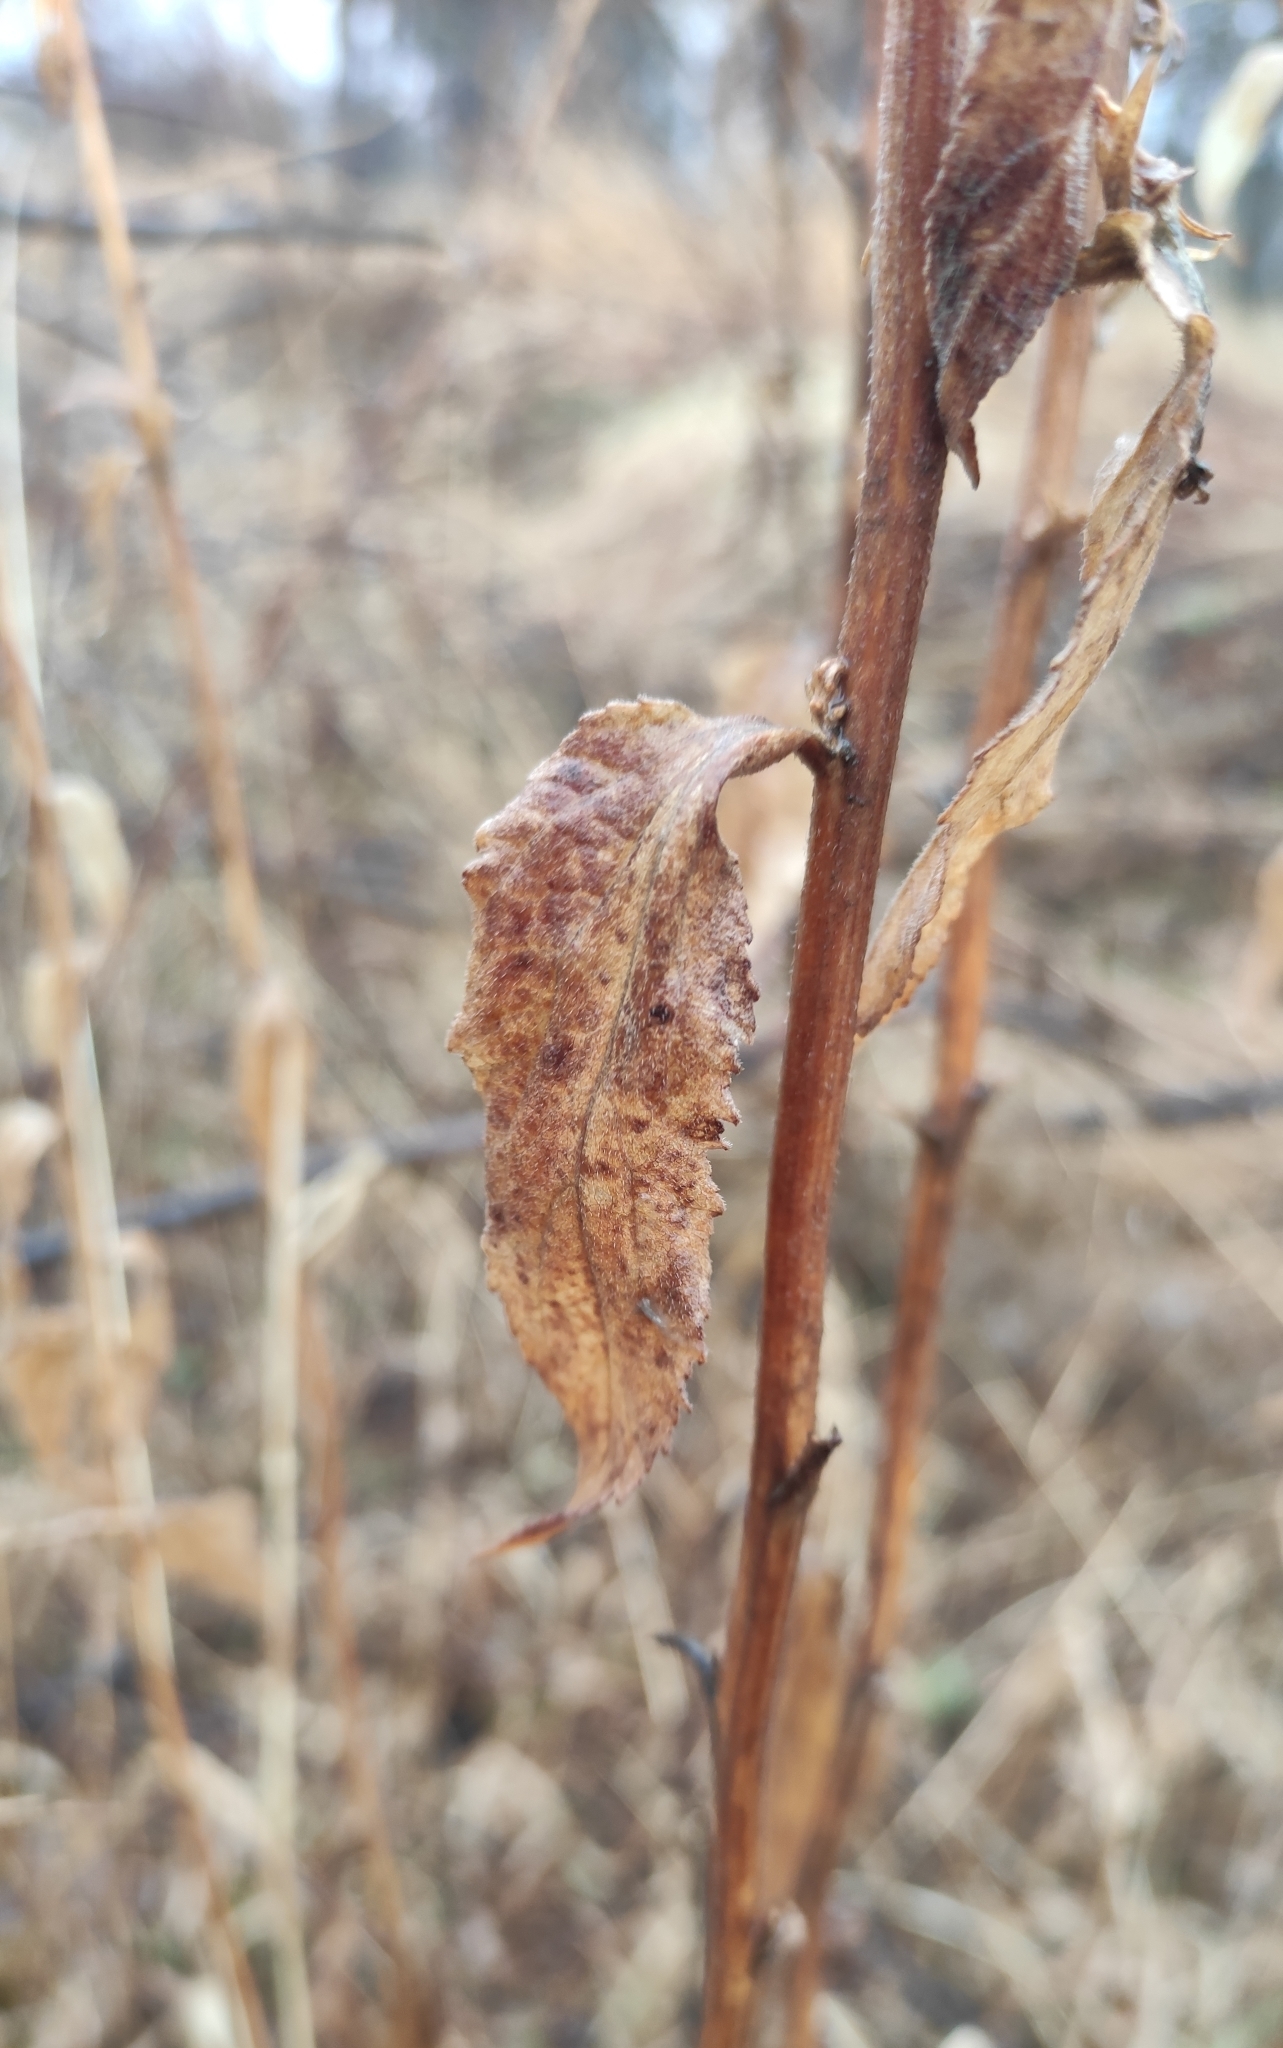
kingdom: Plantae
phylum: Tracheophyta
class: Magnoliopsida
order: Asterales
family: Campanulaceae
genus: Campanula
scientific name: Campanula rapunculoides
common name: Creeping bellflower
